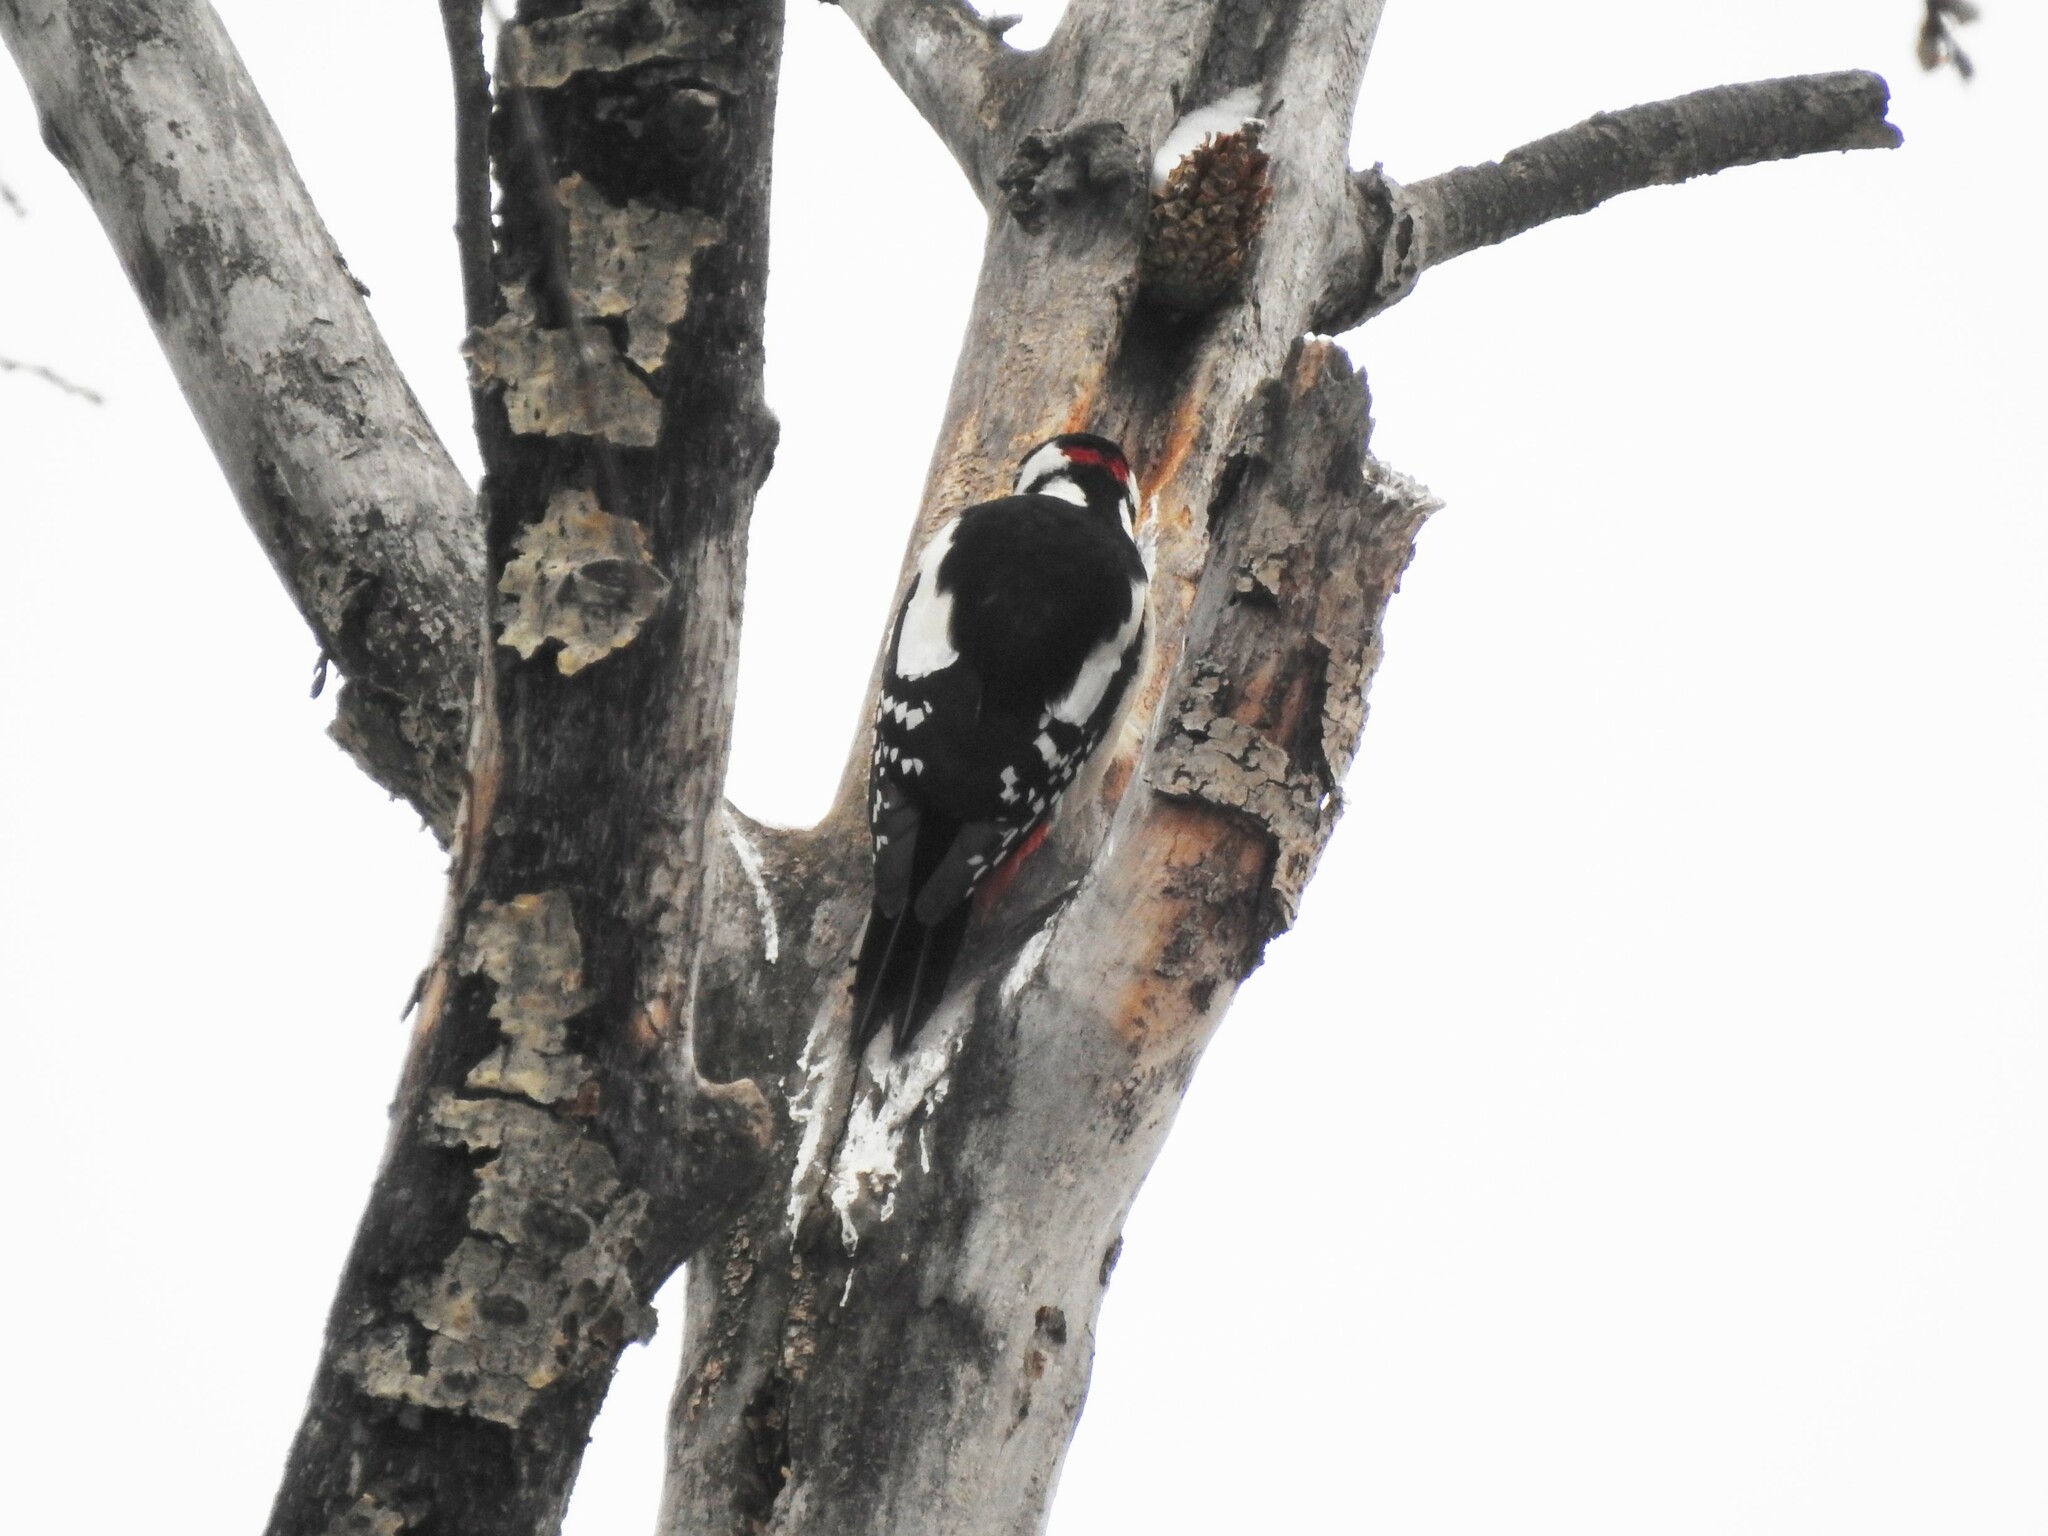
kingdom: Animalia
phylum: Chordata
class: Aves
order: Piciformes
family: Picidae
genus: Dendrocopos
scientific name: Dendrocopos major
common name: Great spotted woodpecker
